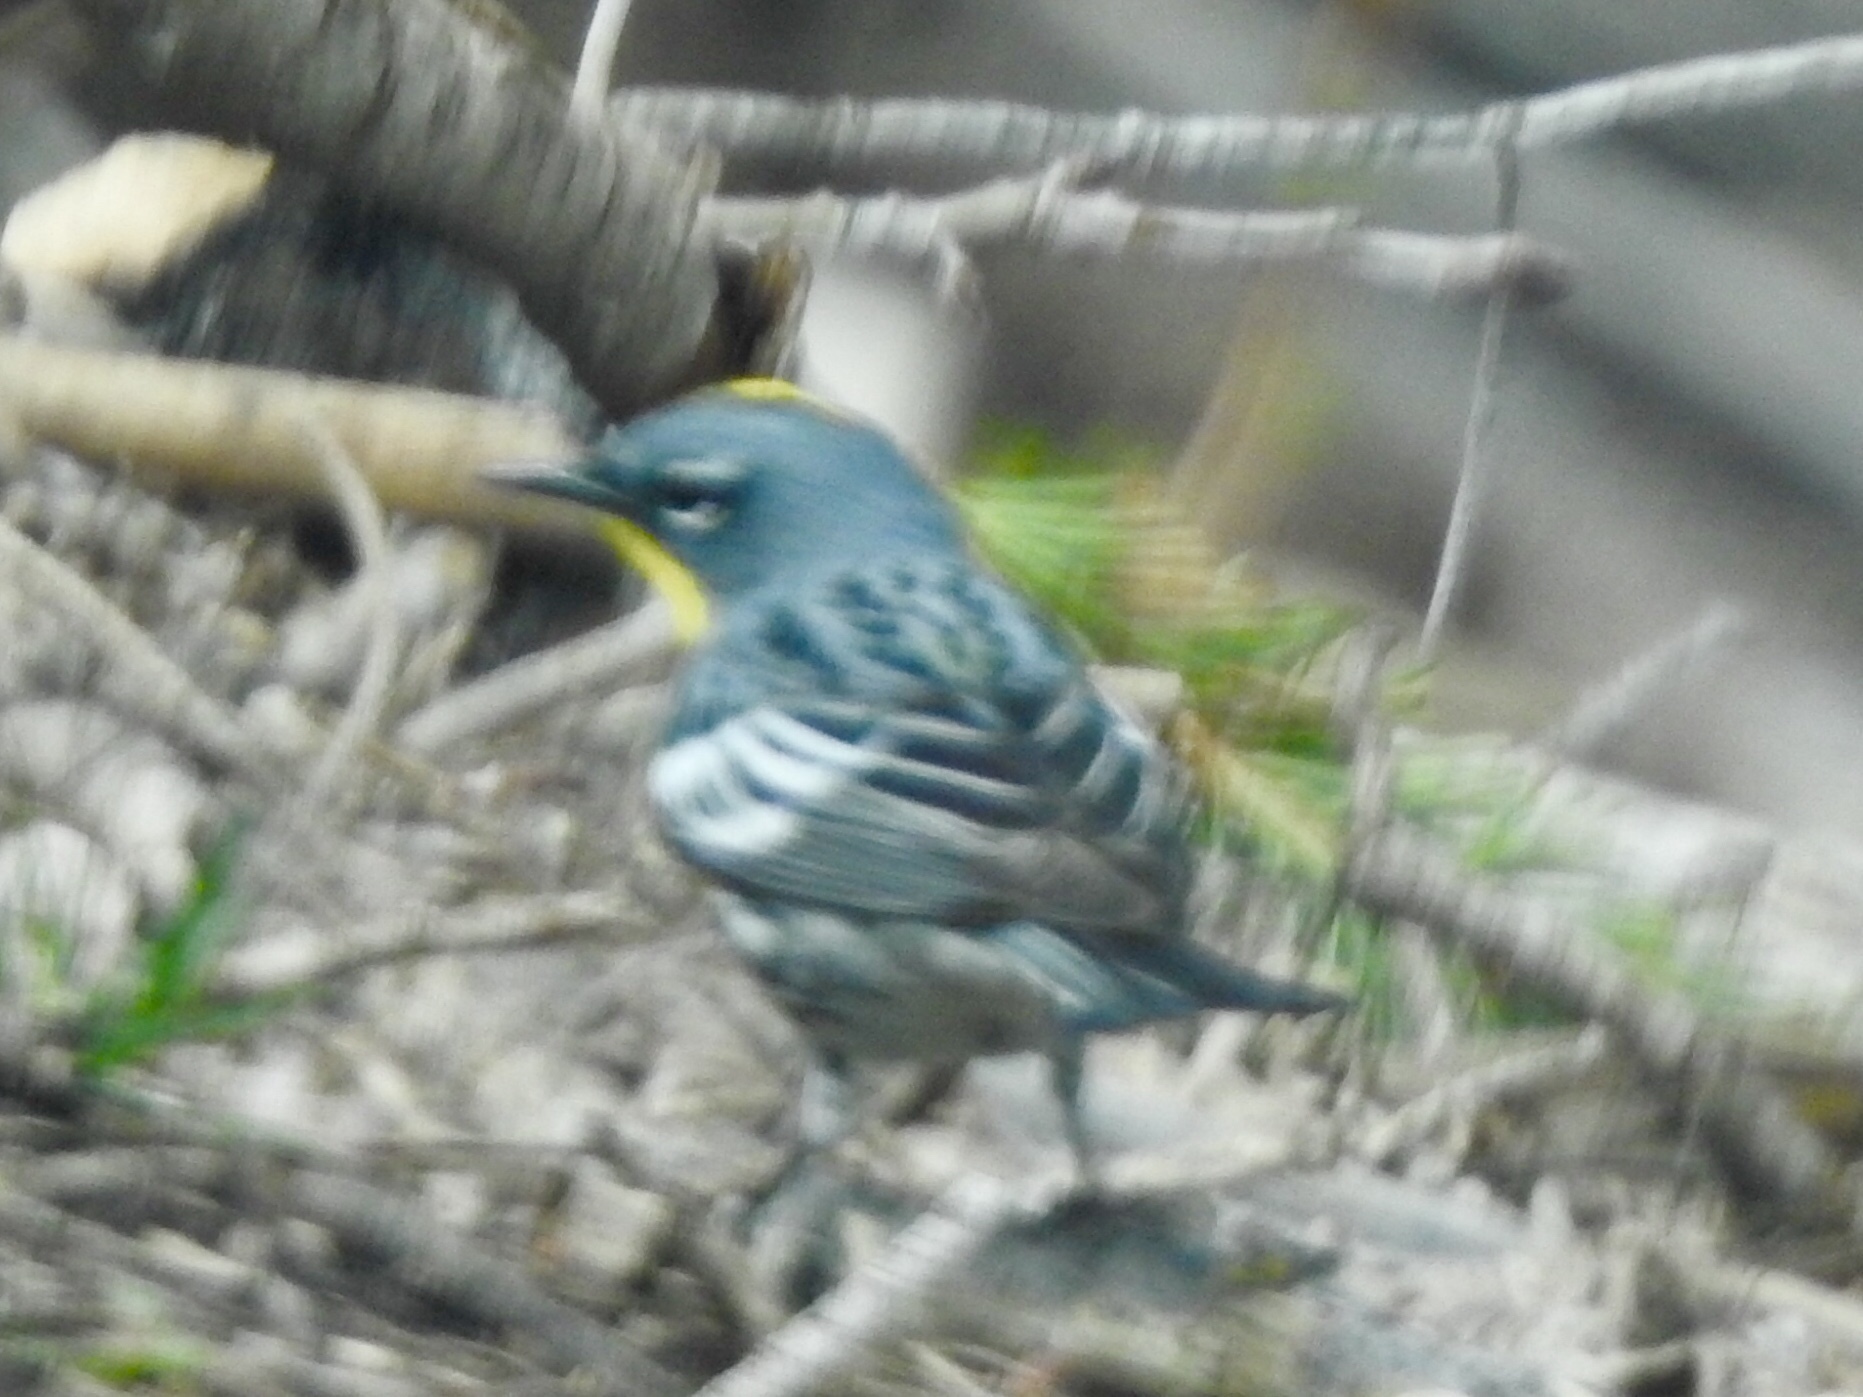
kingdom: Animalia
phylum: Chordata
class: Aves
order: Passeriformes
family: Parulidae
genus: Setophaga
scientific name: Setophaga coronata
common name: Myrtle warbler
